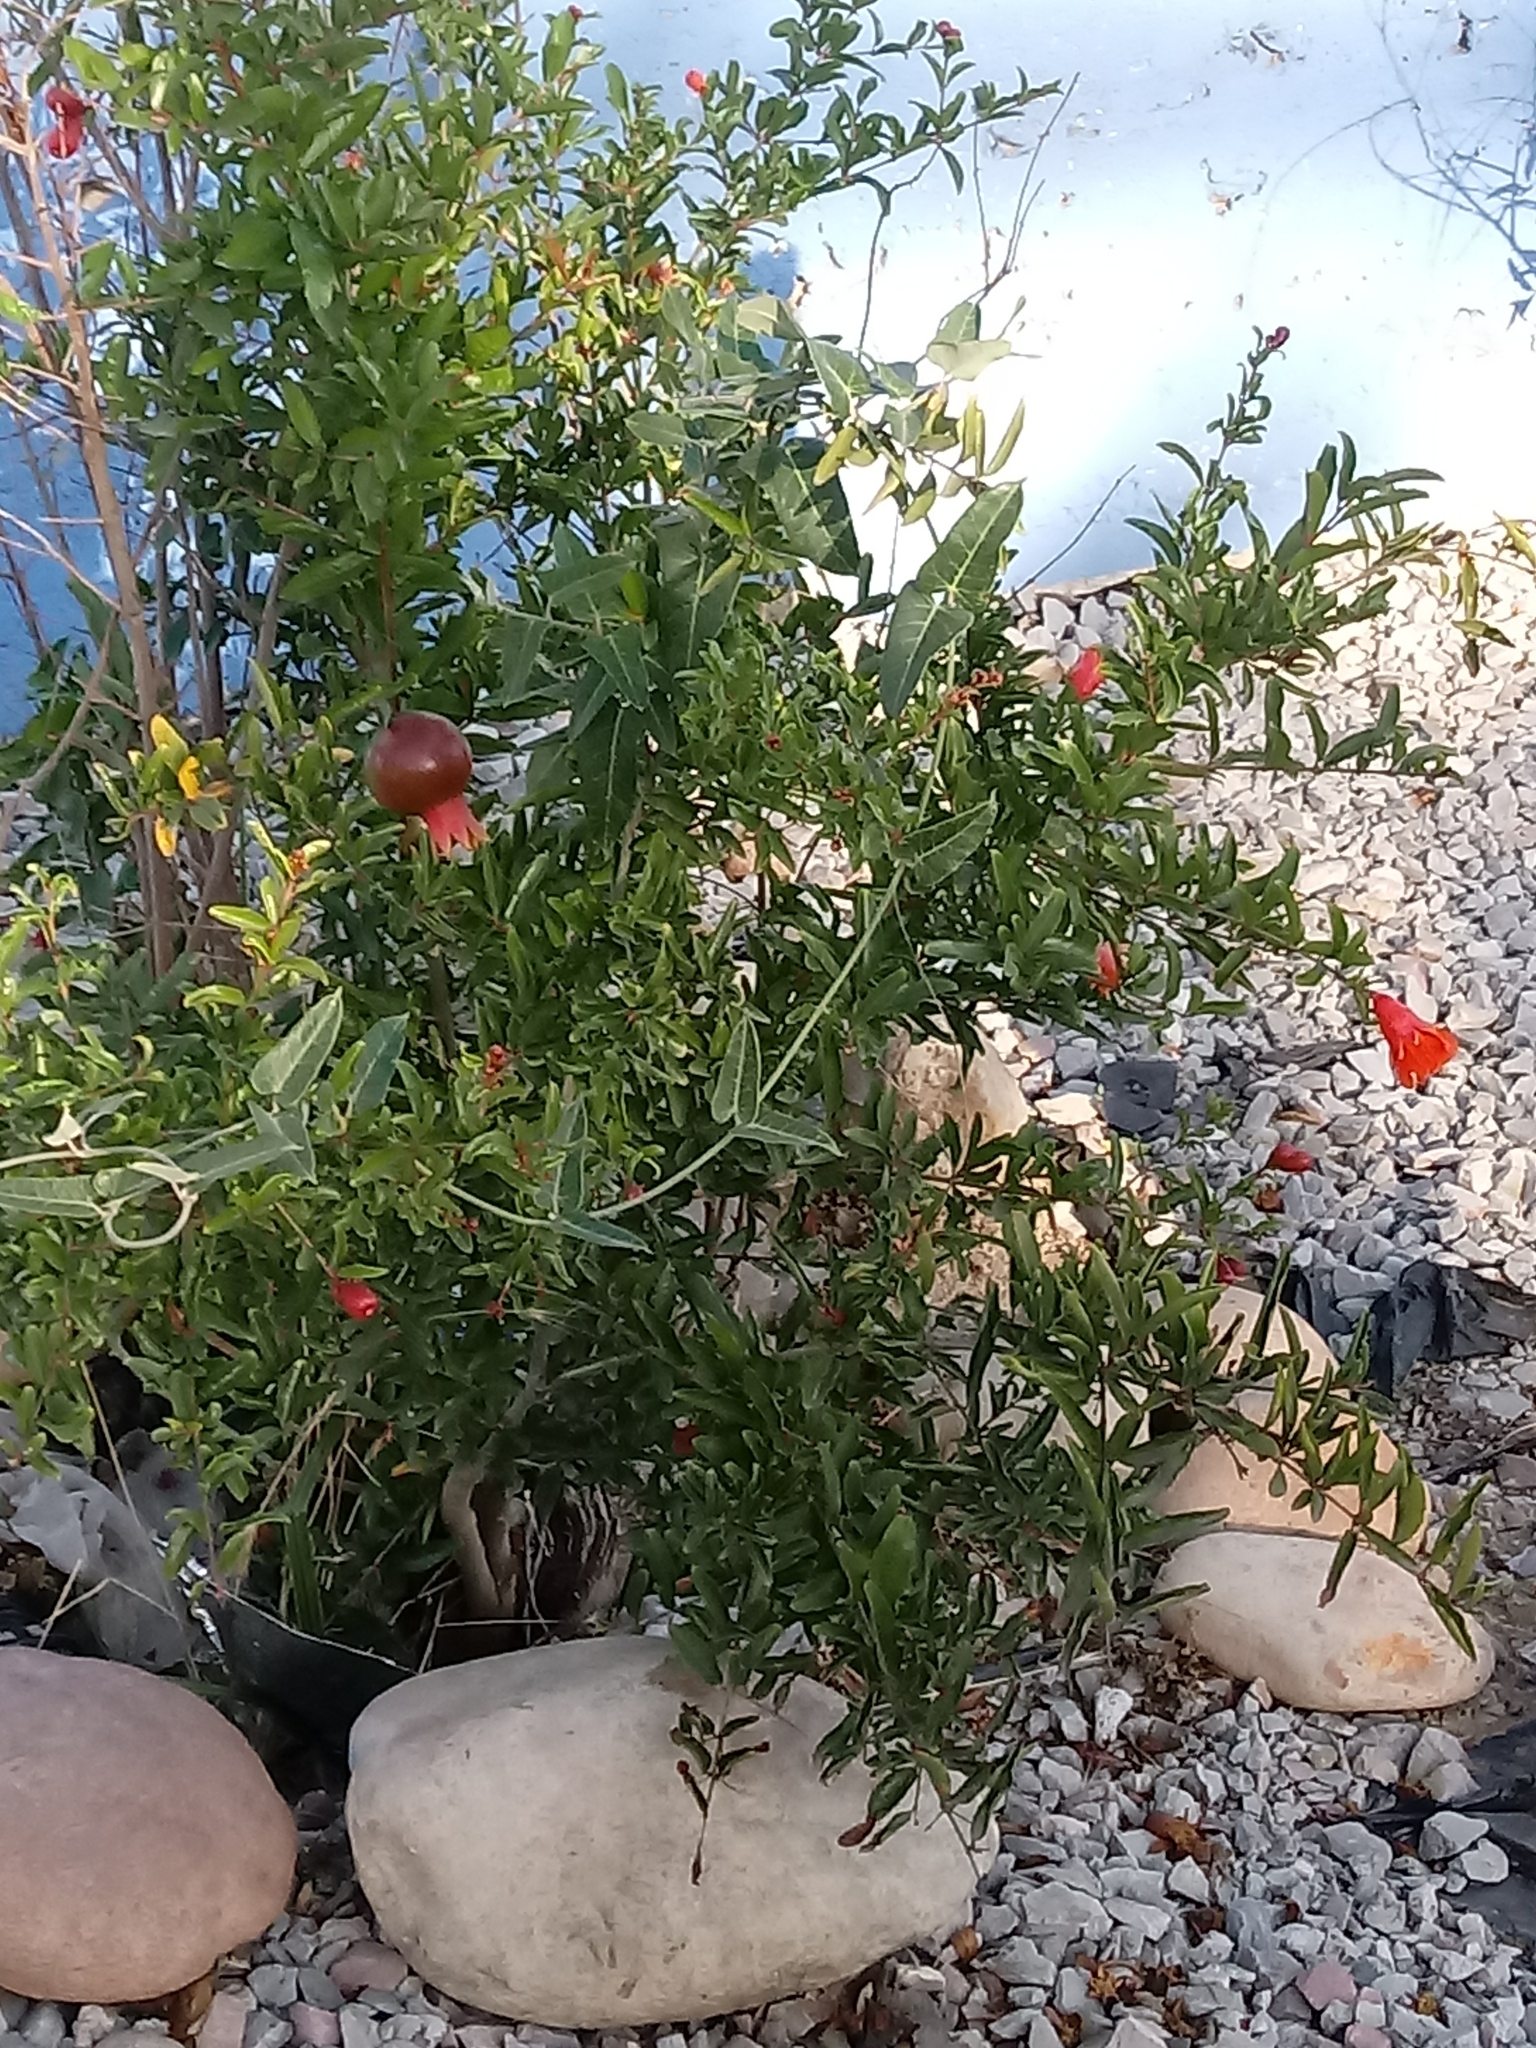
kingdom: Plantae
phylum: Tracheophyta
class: Magnoliopsida
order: Gentianales
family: Apocynaceae
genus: Araujia
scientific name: Araujia sericifera
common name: White bladderflower
